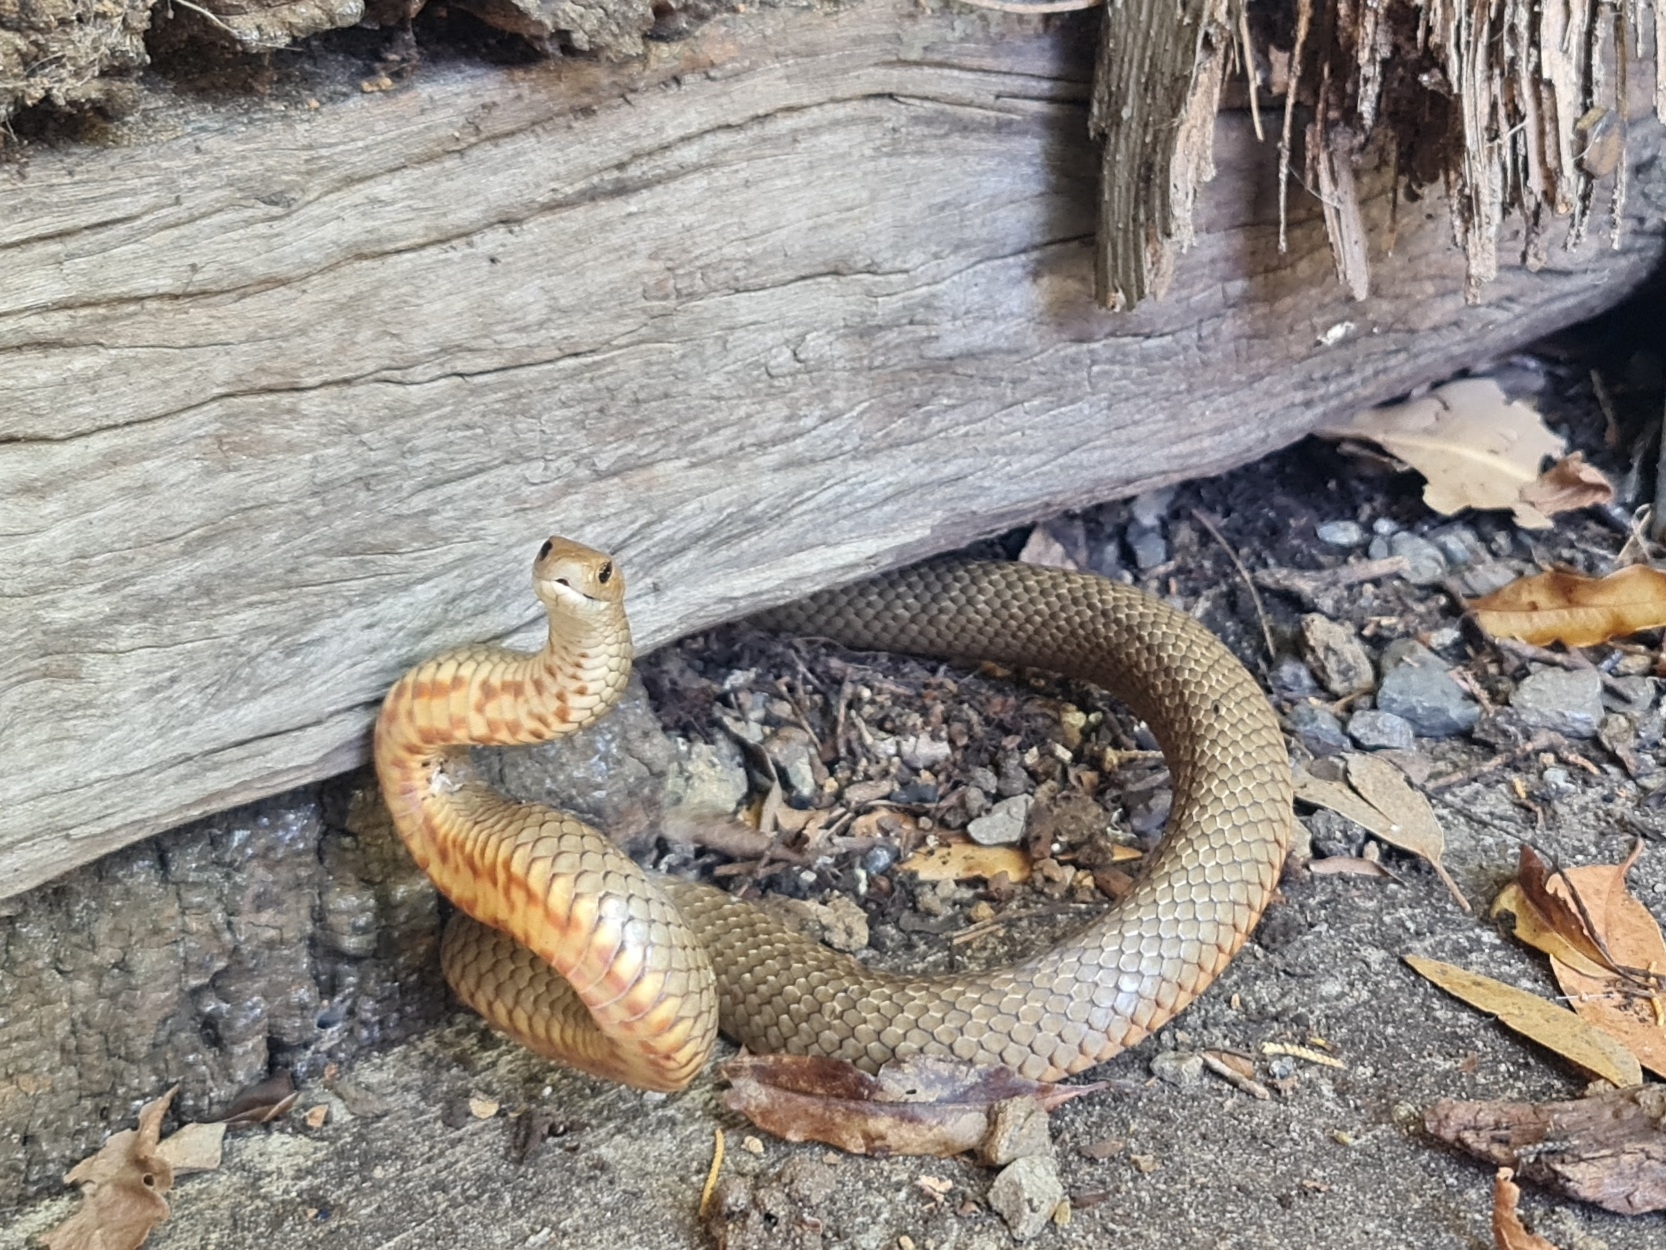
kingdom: Animalia
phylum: Chordata
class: Squamata
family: Elapidae
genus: Pseudonaja
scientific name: Pseudonaja textilis
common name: Eastern brown snake
